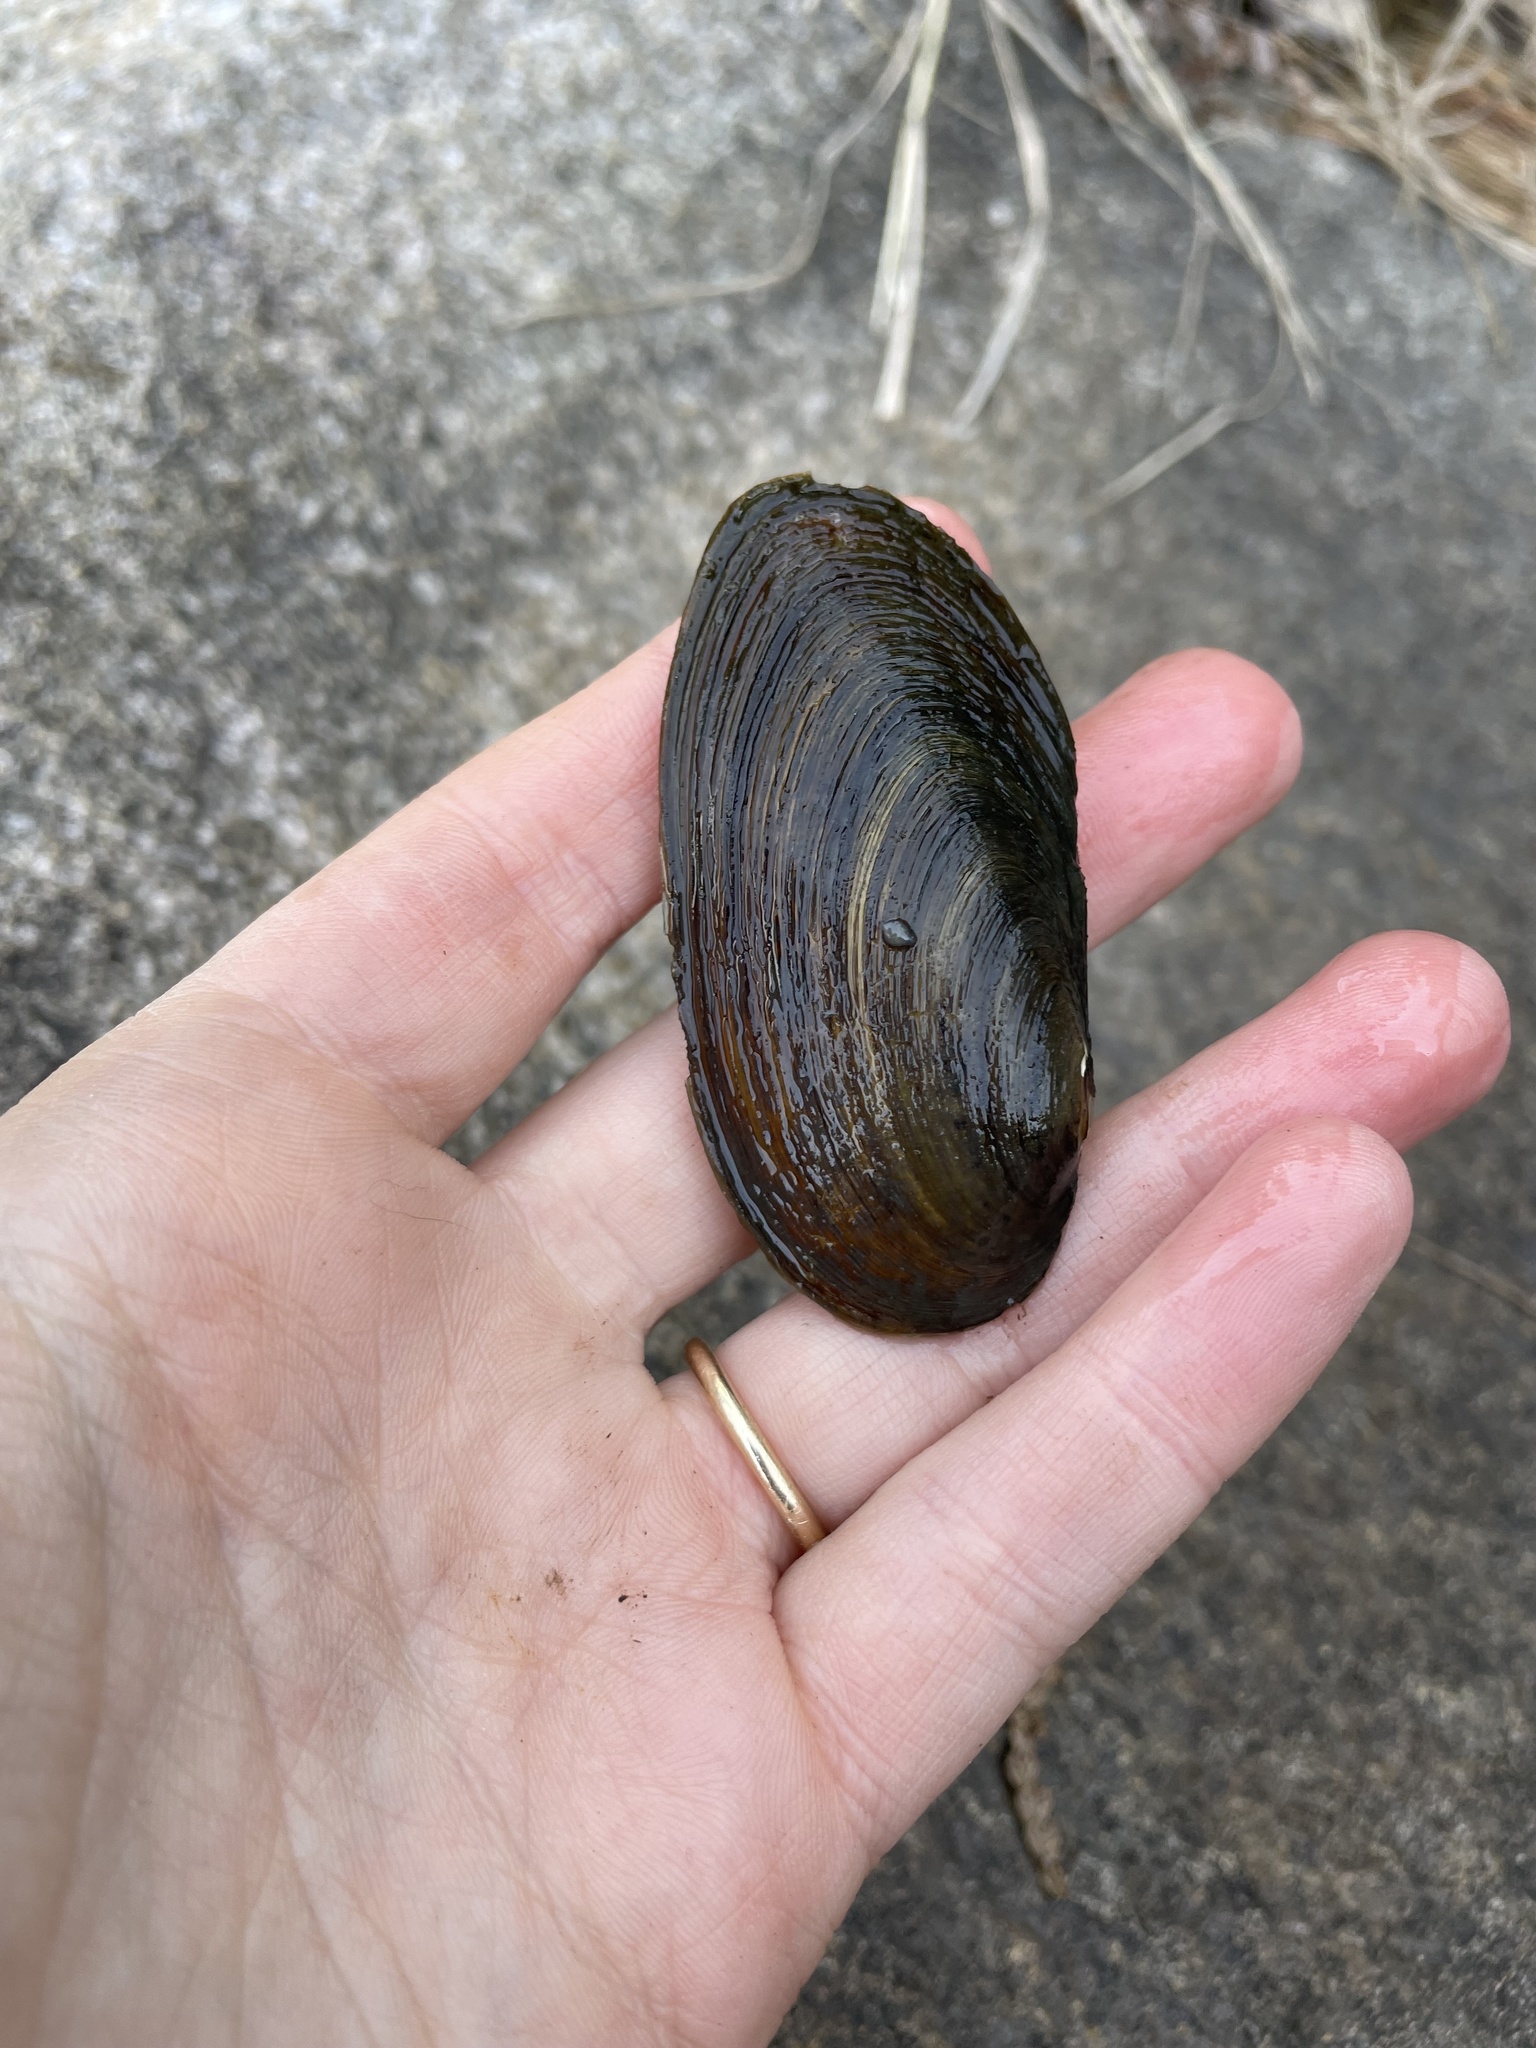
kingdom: Animalia
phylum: Mollusca
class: Bivalvia
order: Unionida
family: Unionidae
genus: Elliptio
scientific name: Elliptio complanata
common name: Eastern elliptio
